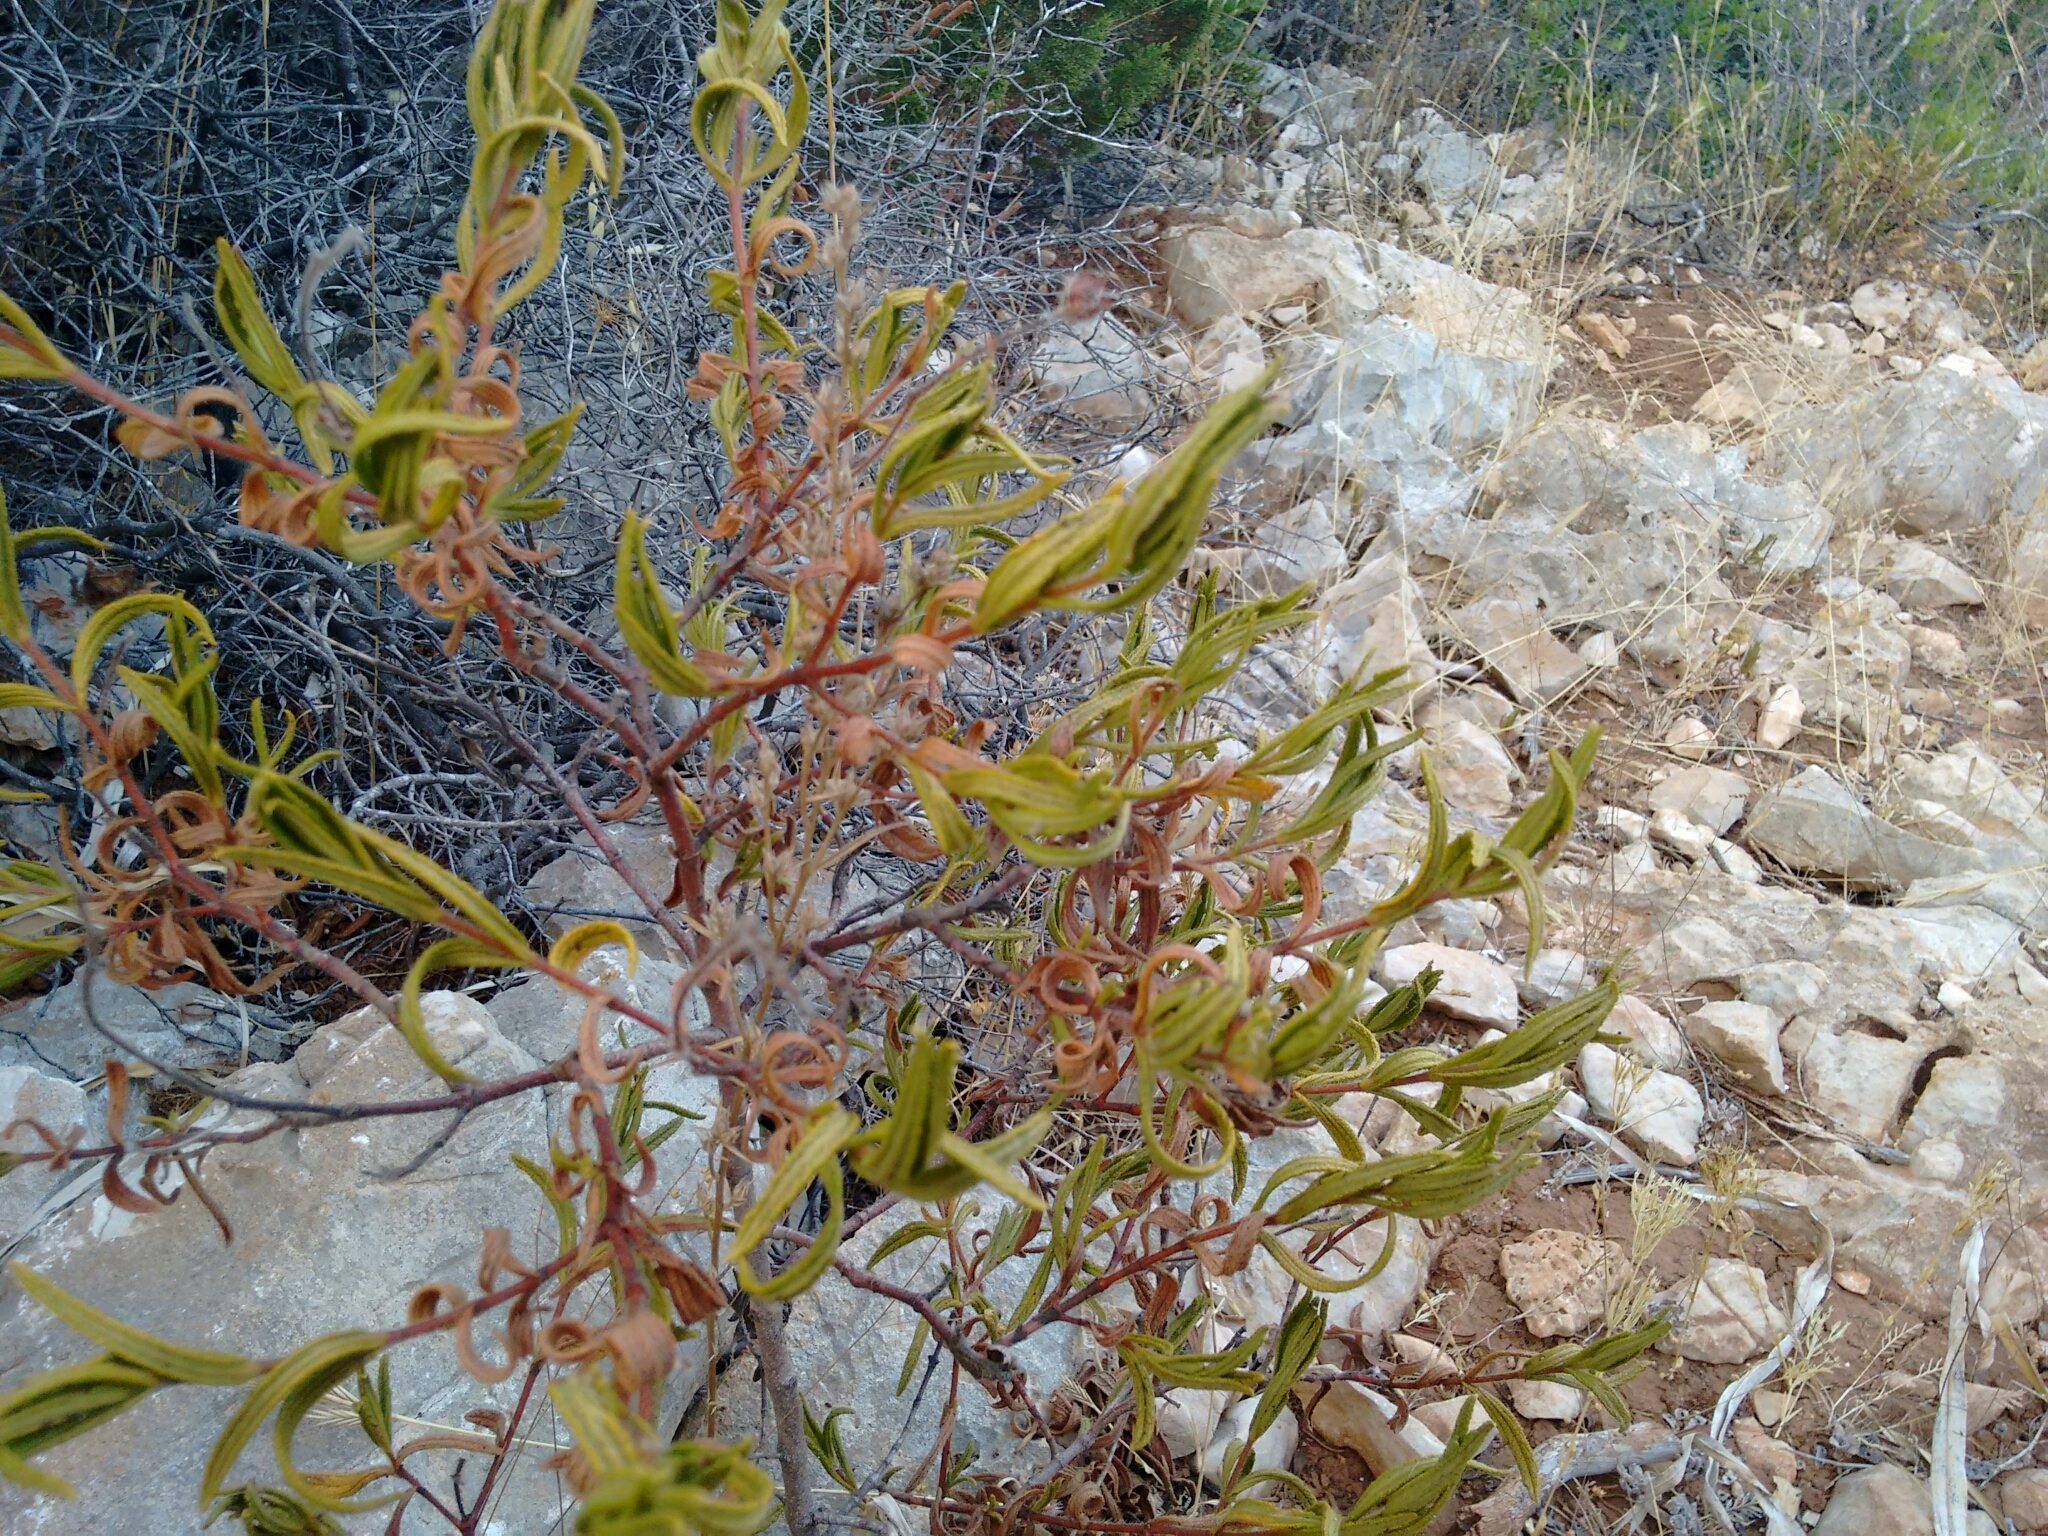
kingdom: Plantae
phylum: Tracheophyta
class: Magnoliopsida
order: Malvales
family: Cistaceae
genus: Cistus
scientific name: Cistus monspeliensis
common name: Montpelier cistus
